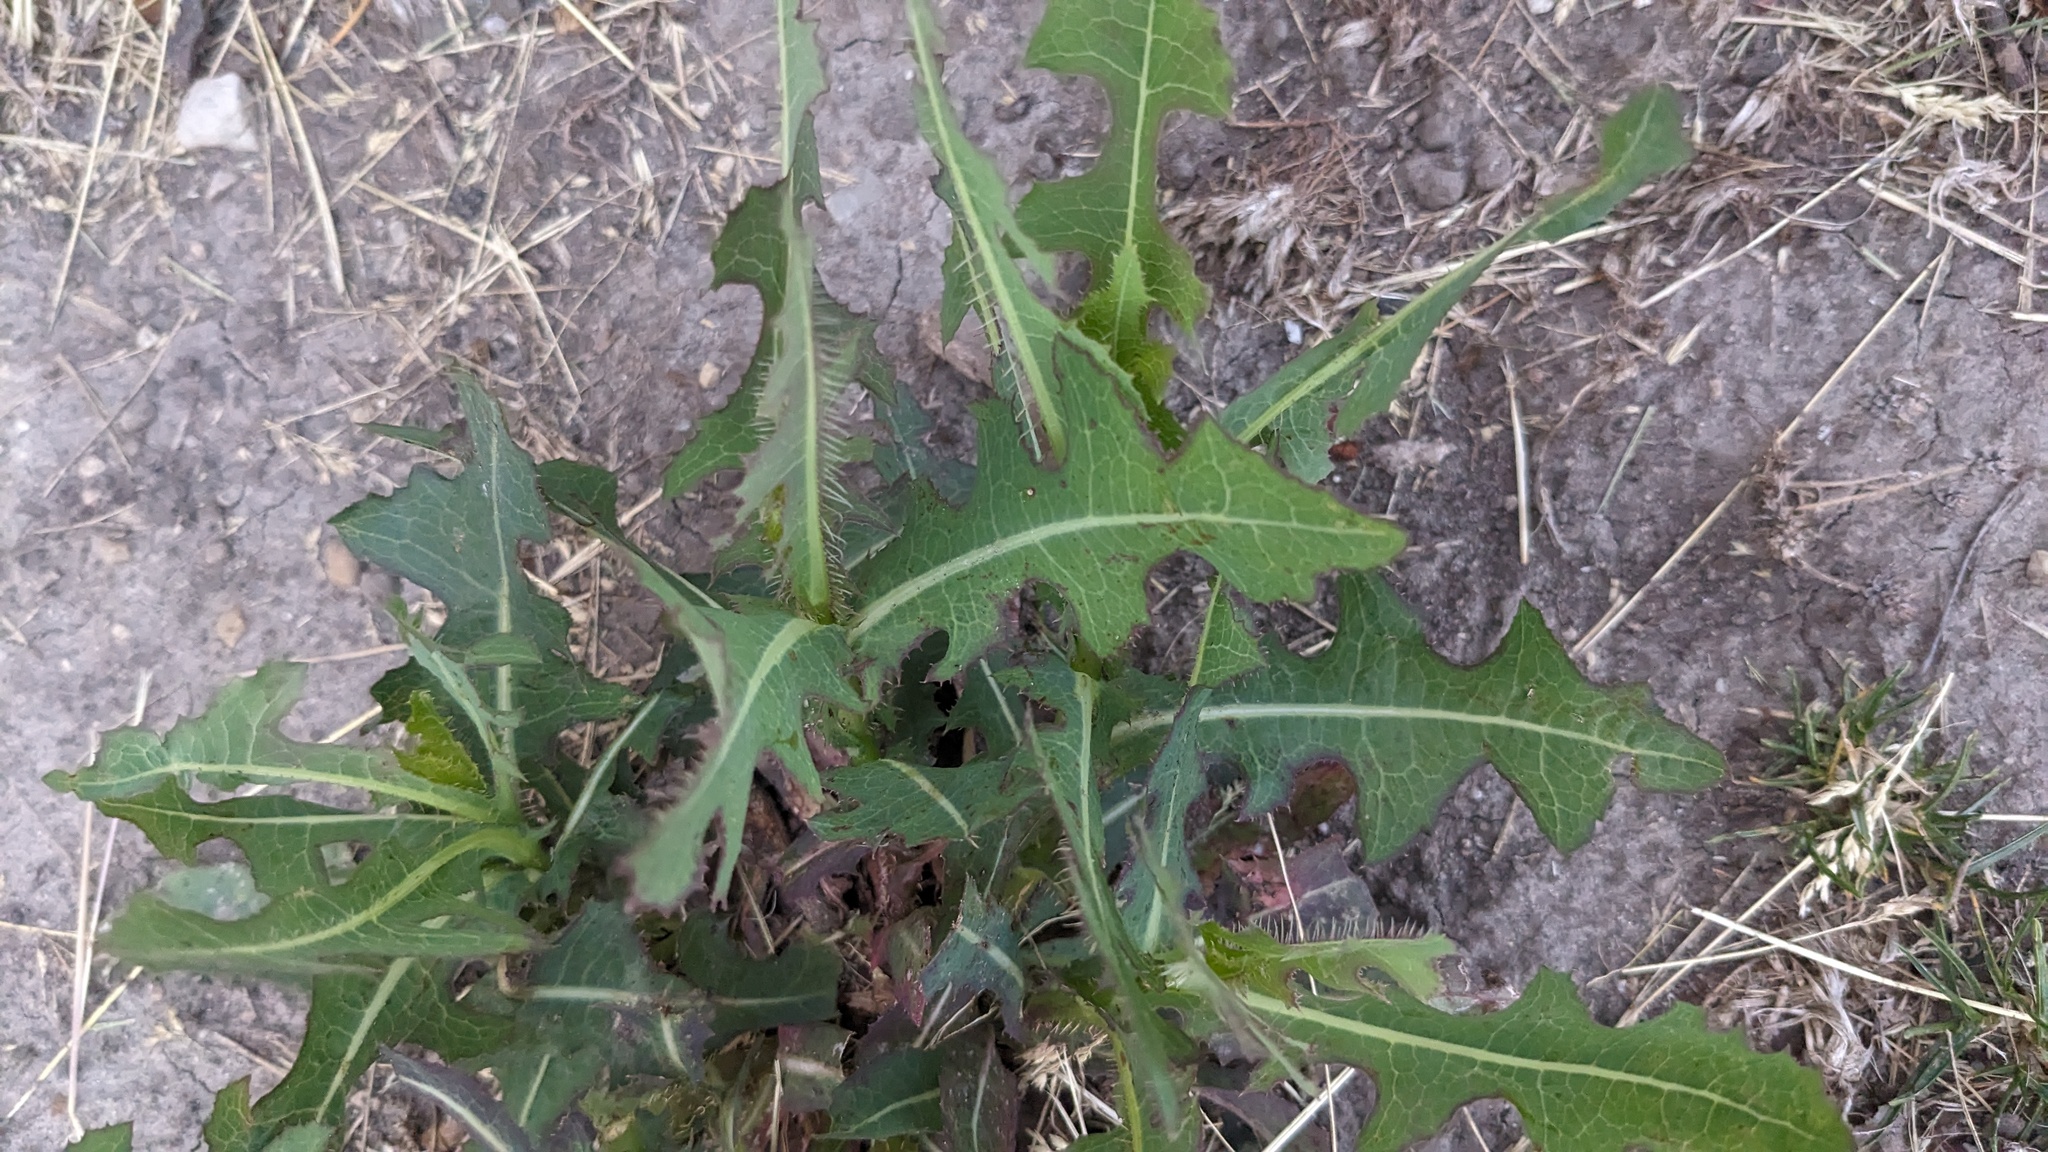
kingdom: Plantae
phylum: Tracheophyta
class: Magnoliopsida
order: Asterales
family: Asteraceae
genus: Lactuca
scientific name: Lactuca serriola
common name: Prickly lettuce
